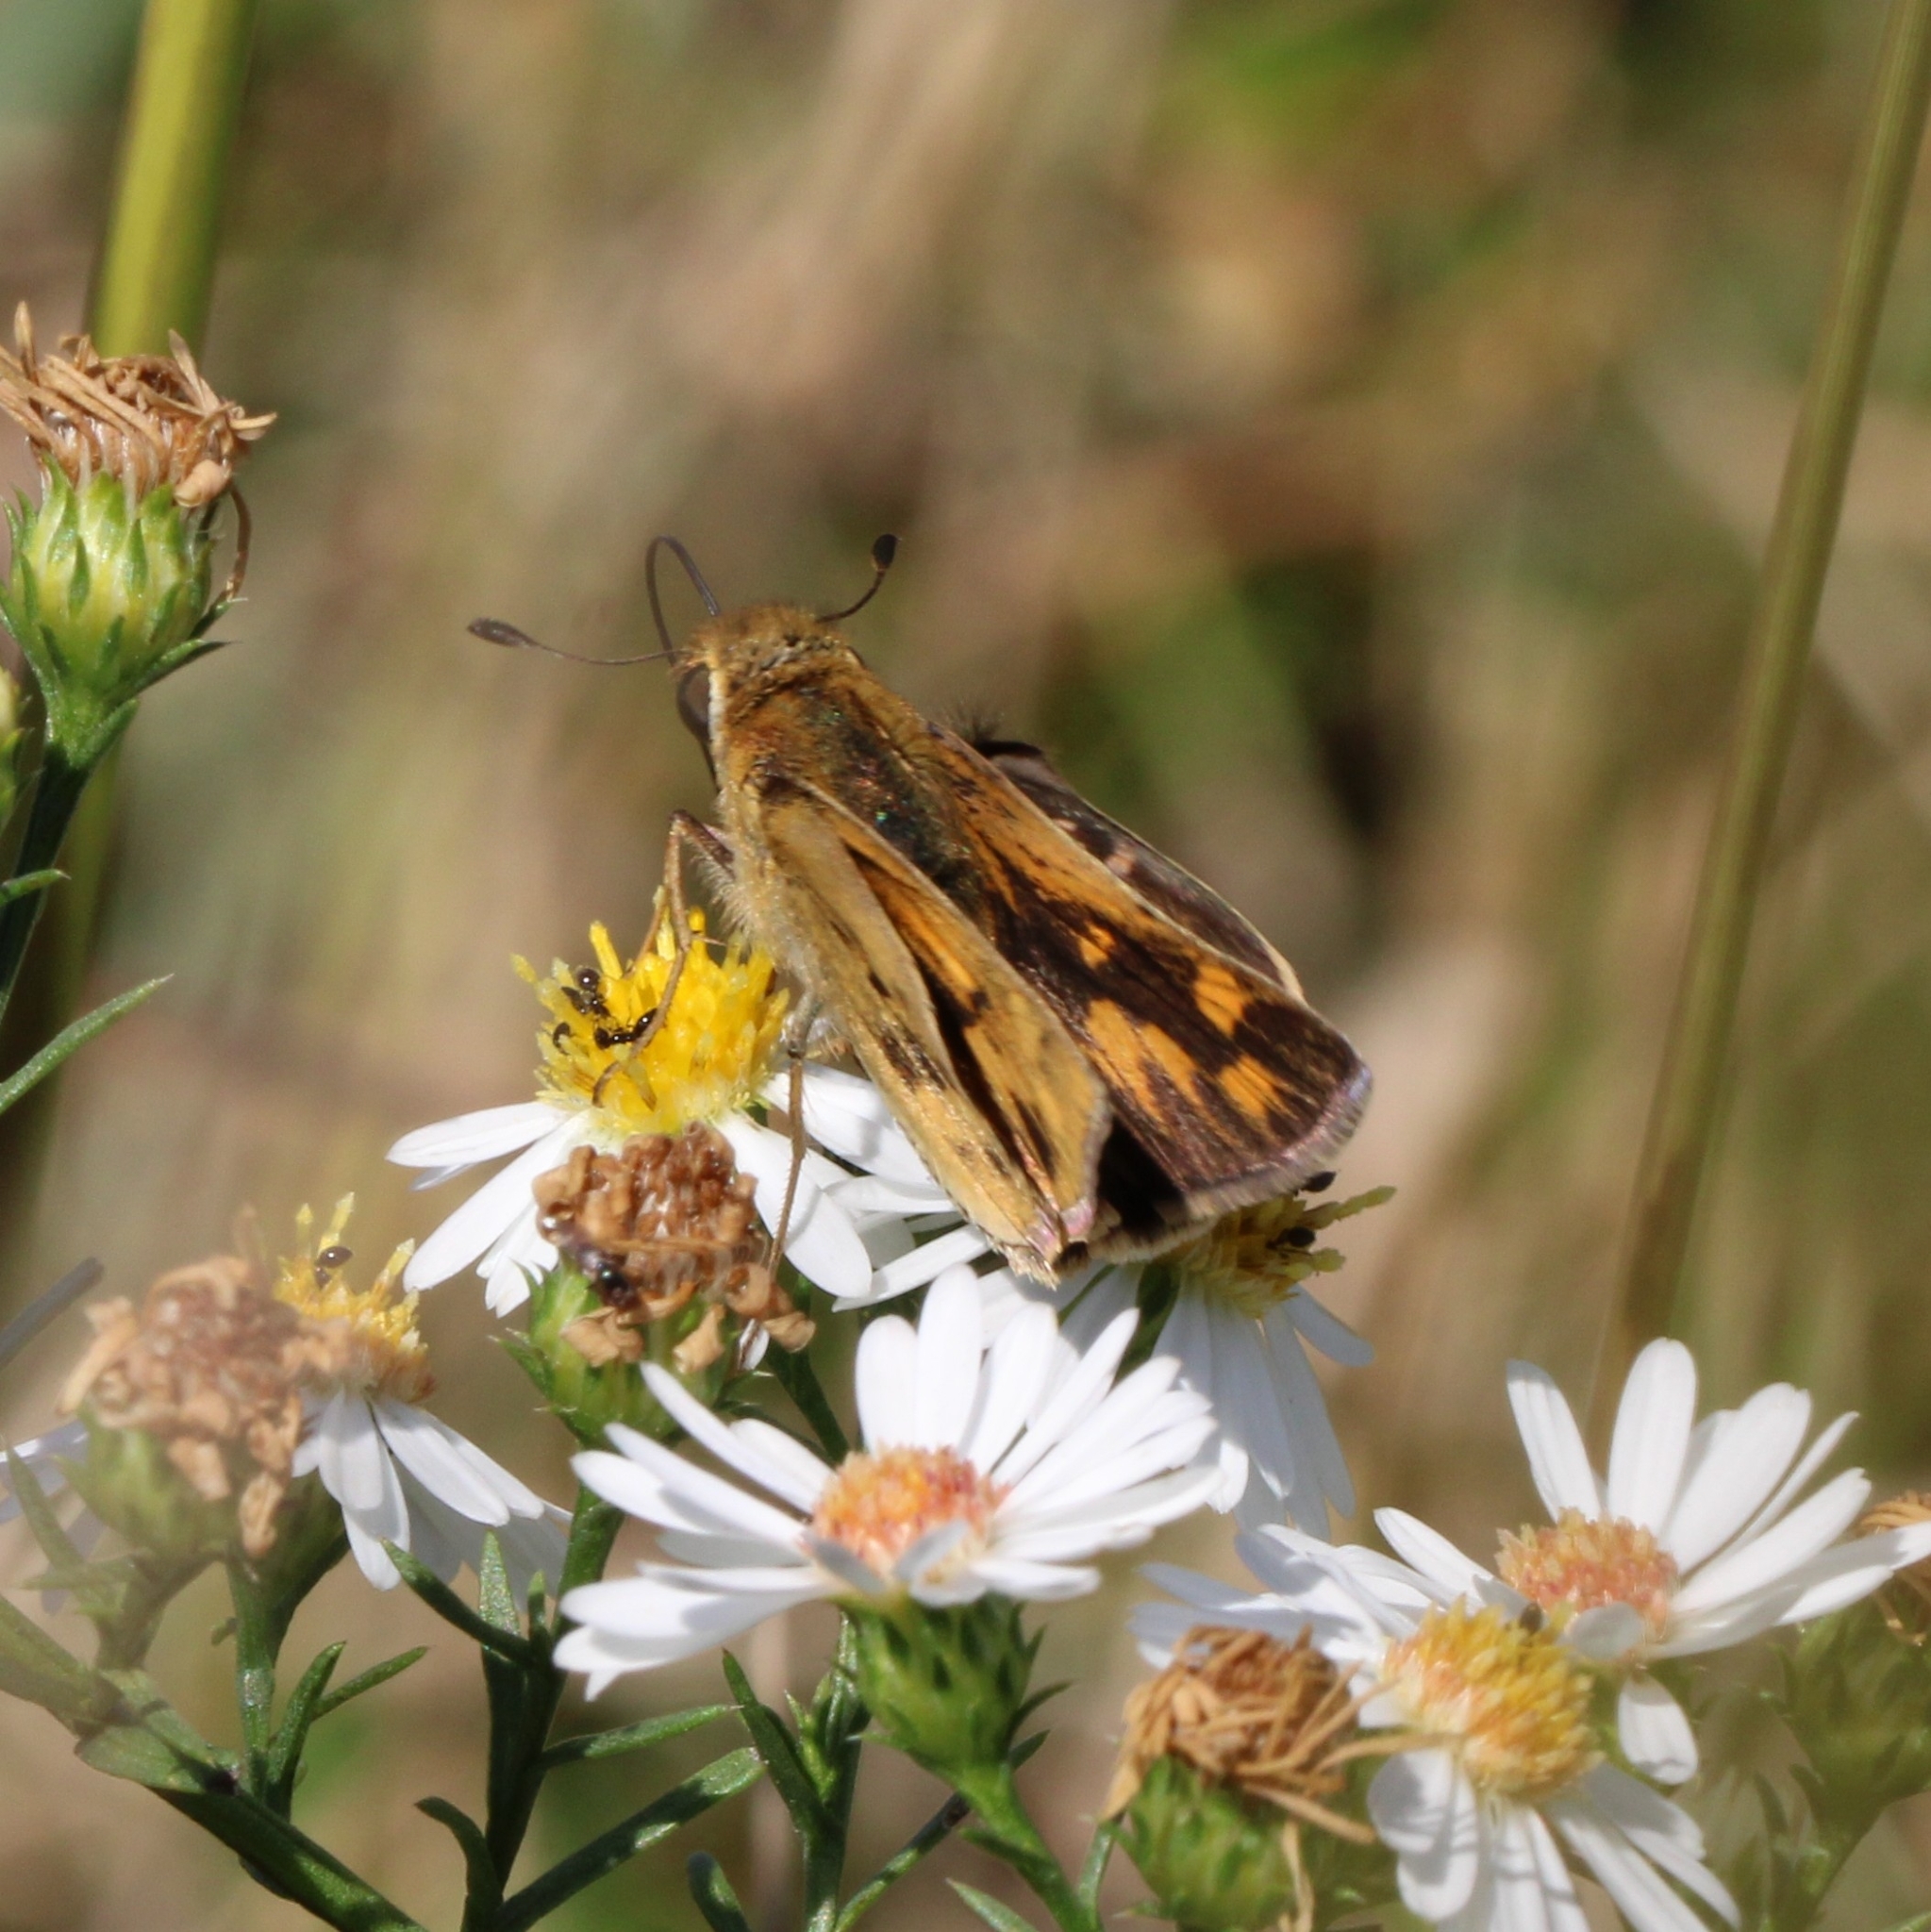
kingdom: Animalia
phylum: Arthropoda
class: Insecta
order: Lepidoptera
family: Hesperiidae
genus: Hylephila
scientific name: Hylephila phyleus
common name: Fiery skipper
